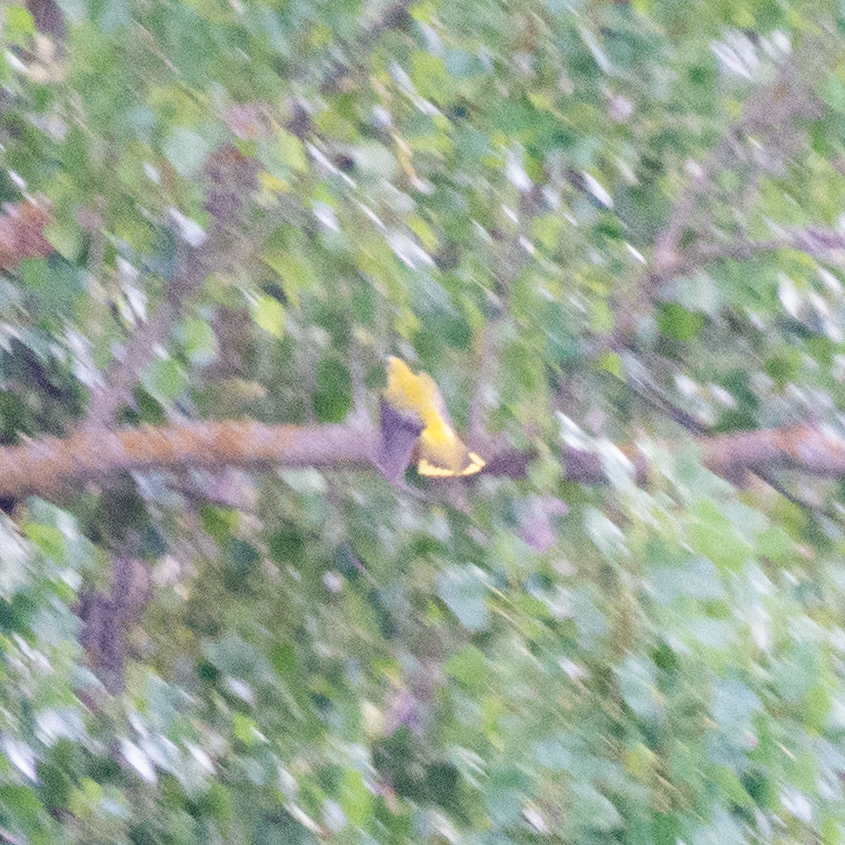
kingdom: Animalia
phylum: Chordata
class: Aves
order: Passeriformes
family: Oriolidae
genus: Oriolus
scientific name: Oriolus oriolus
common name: Eurasian golden oriole
